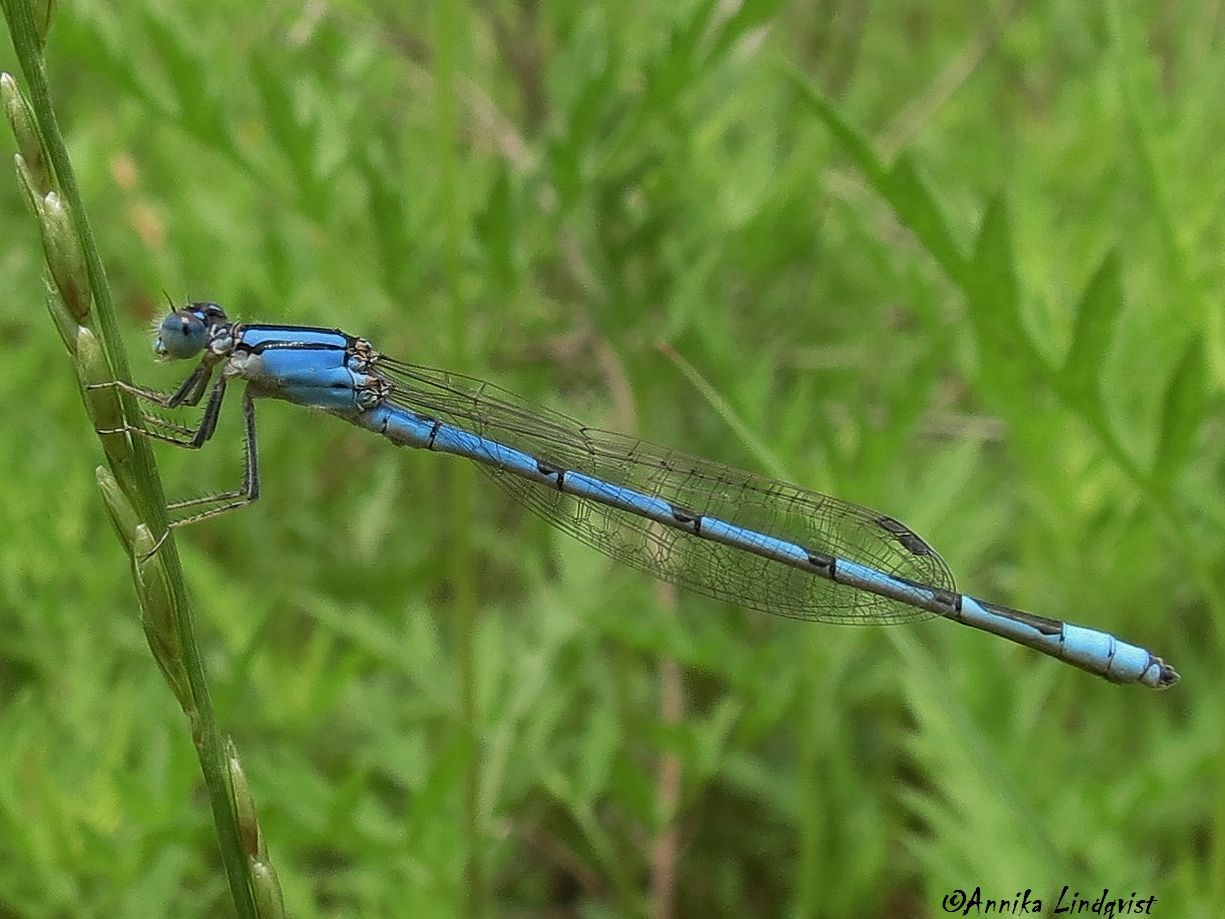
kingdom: Animalia
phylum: Arthropoda
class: Insecta
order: Odonata
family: Coenagrionidae
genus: Enallagma
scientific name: Enallagma civile
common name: Damselfly
